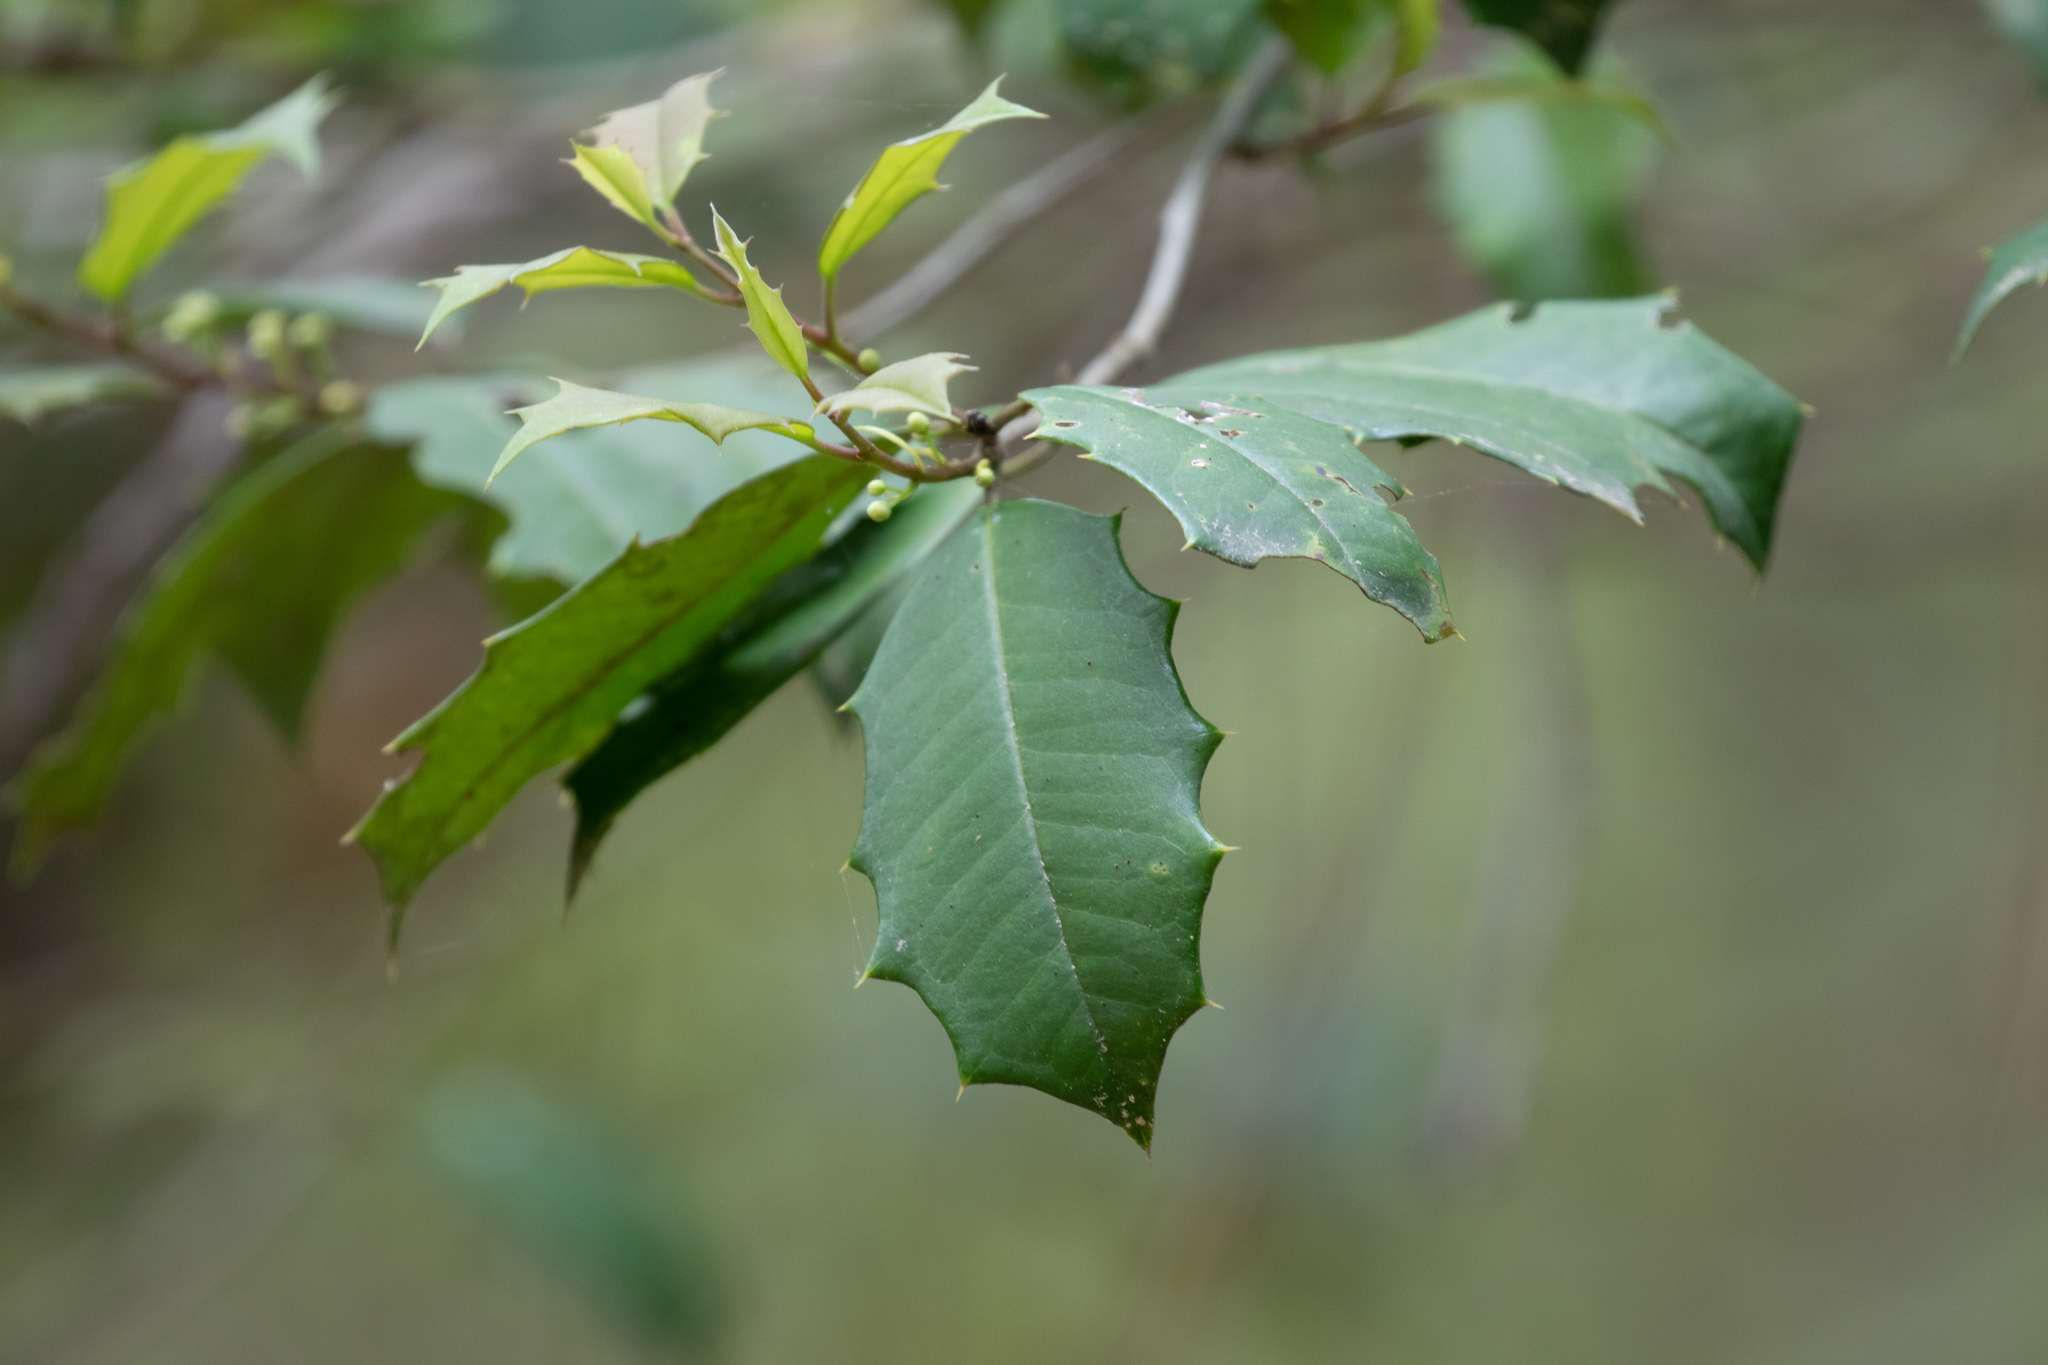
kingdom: Plantae
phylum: Tracheophyta
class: Magnoliopsida
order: Aquifoliales
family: Aquifoliaceae
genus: Ilex
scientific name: Ilex opaca
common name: American holly
